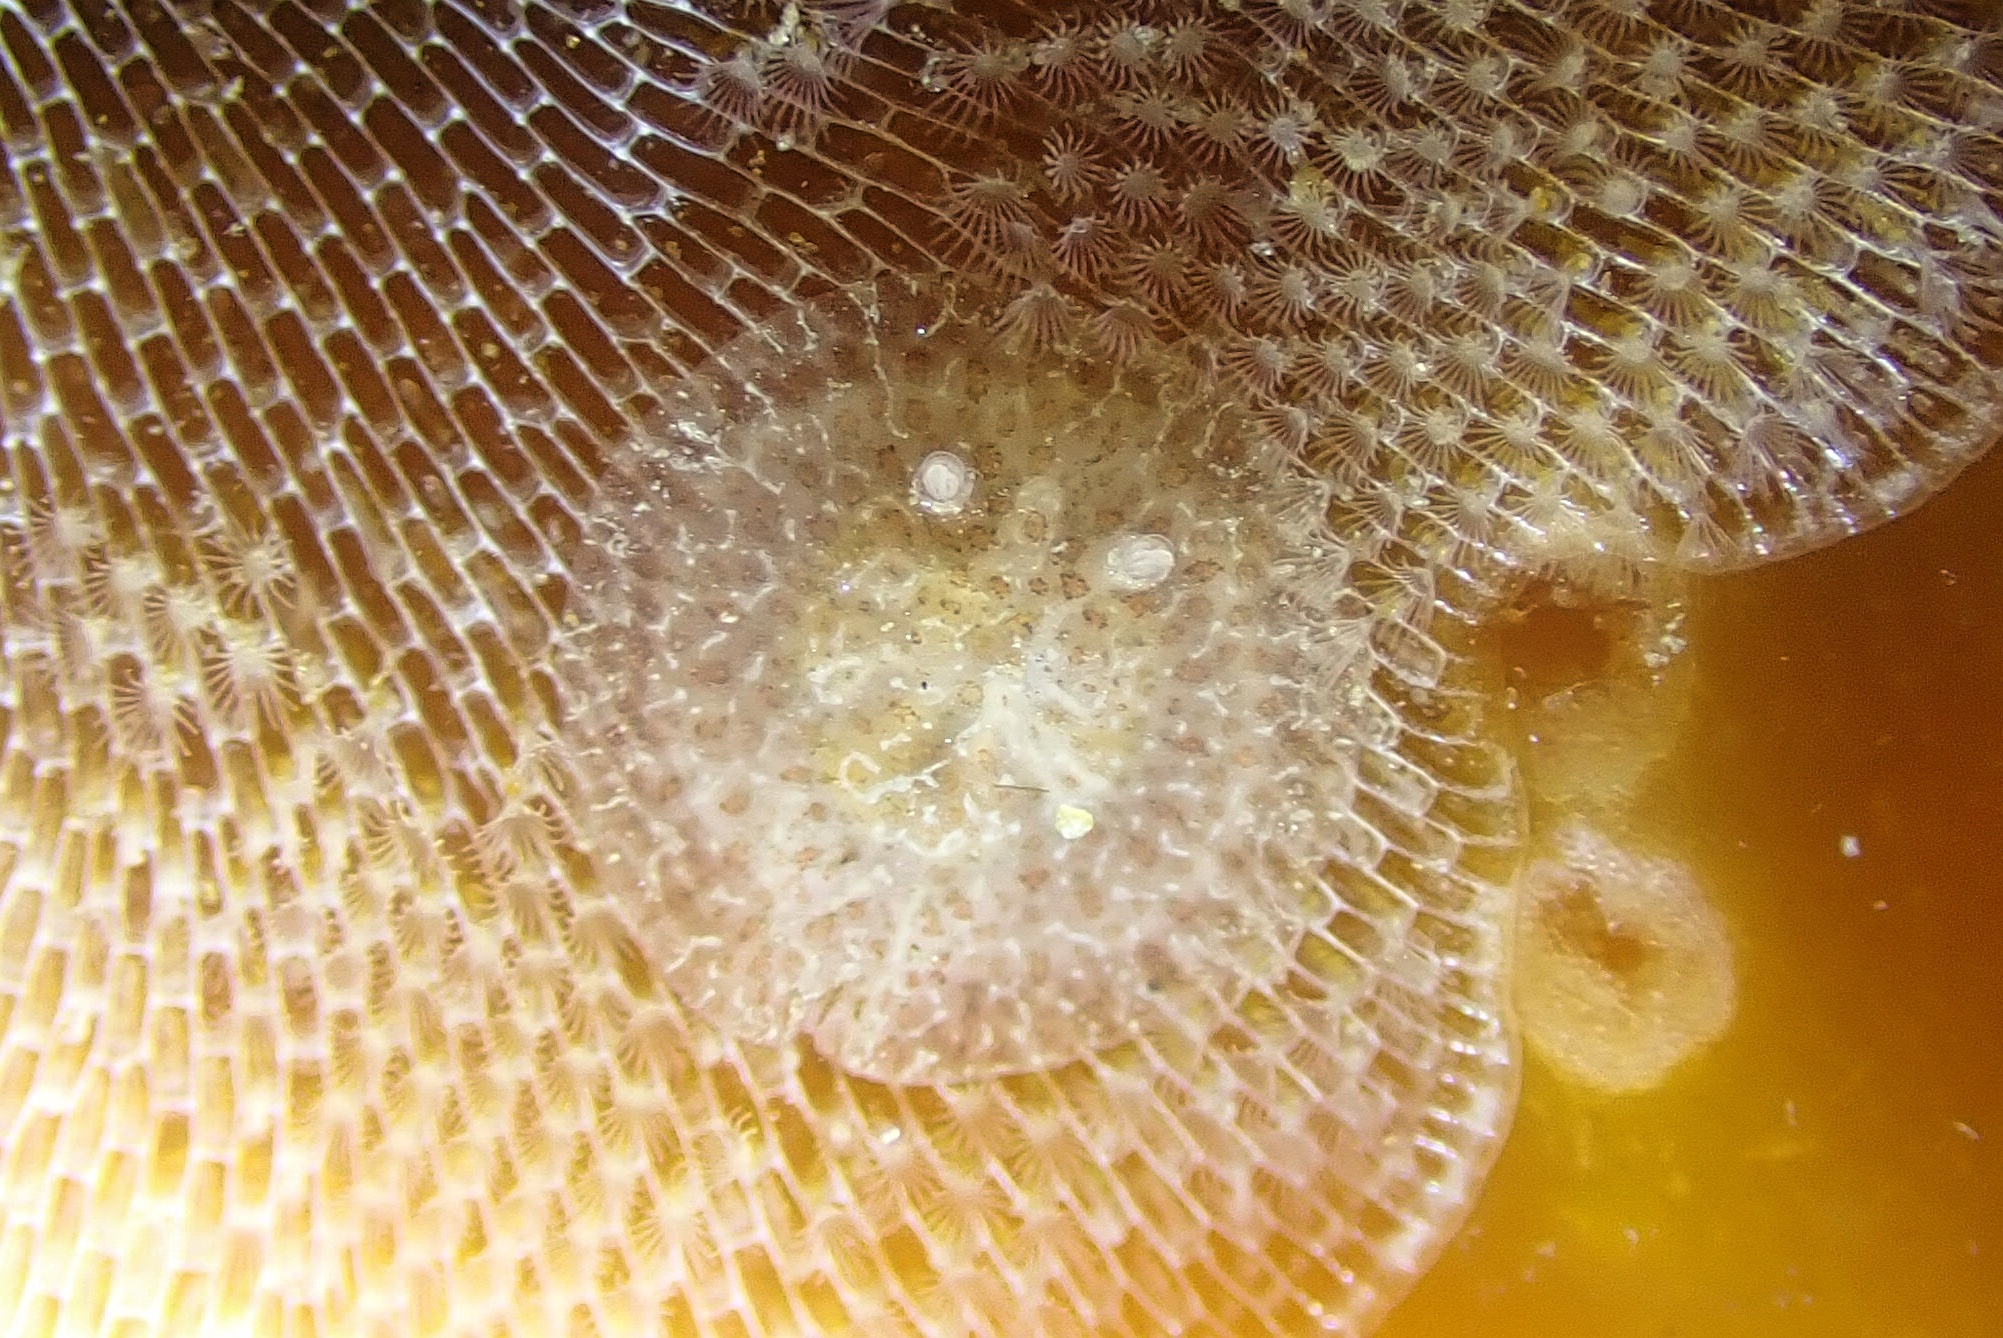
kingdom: Animalia
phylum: Mollusca
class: Gastropoda
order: Nudibranchia
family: Corambidae
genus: Corambe
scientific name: Corambe pacifica
